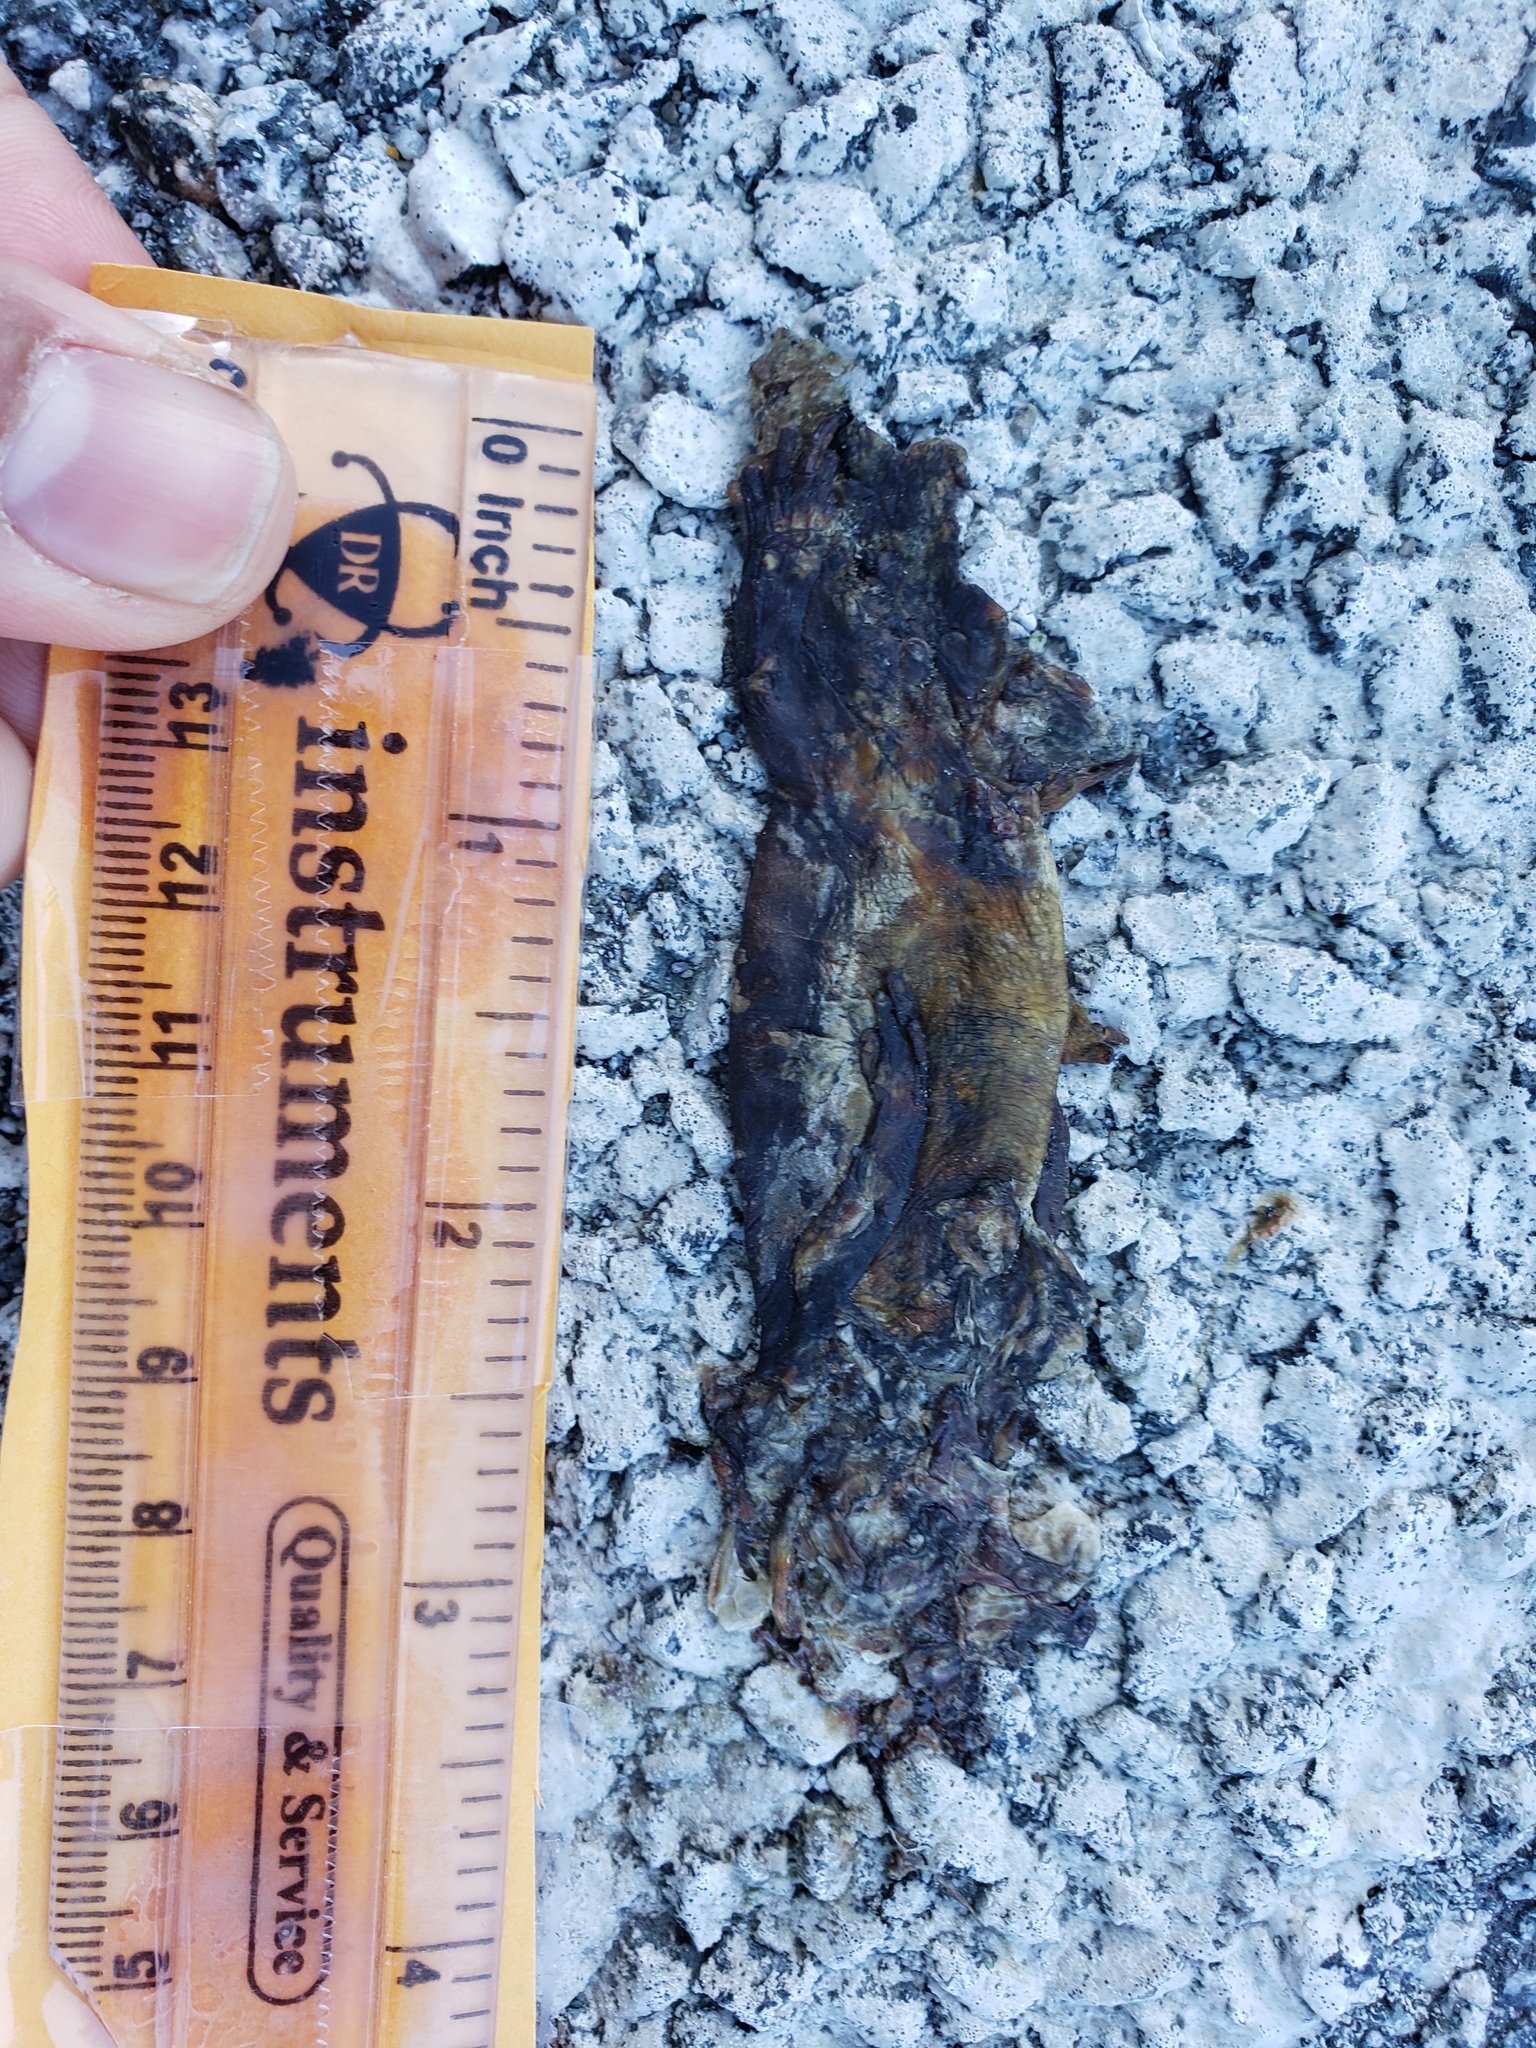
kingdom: Animalia
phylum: Chordata
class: Amphibia
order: Caudata
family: Salamandridae
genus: Taricha
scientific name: Taricha
